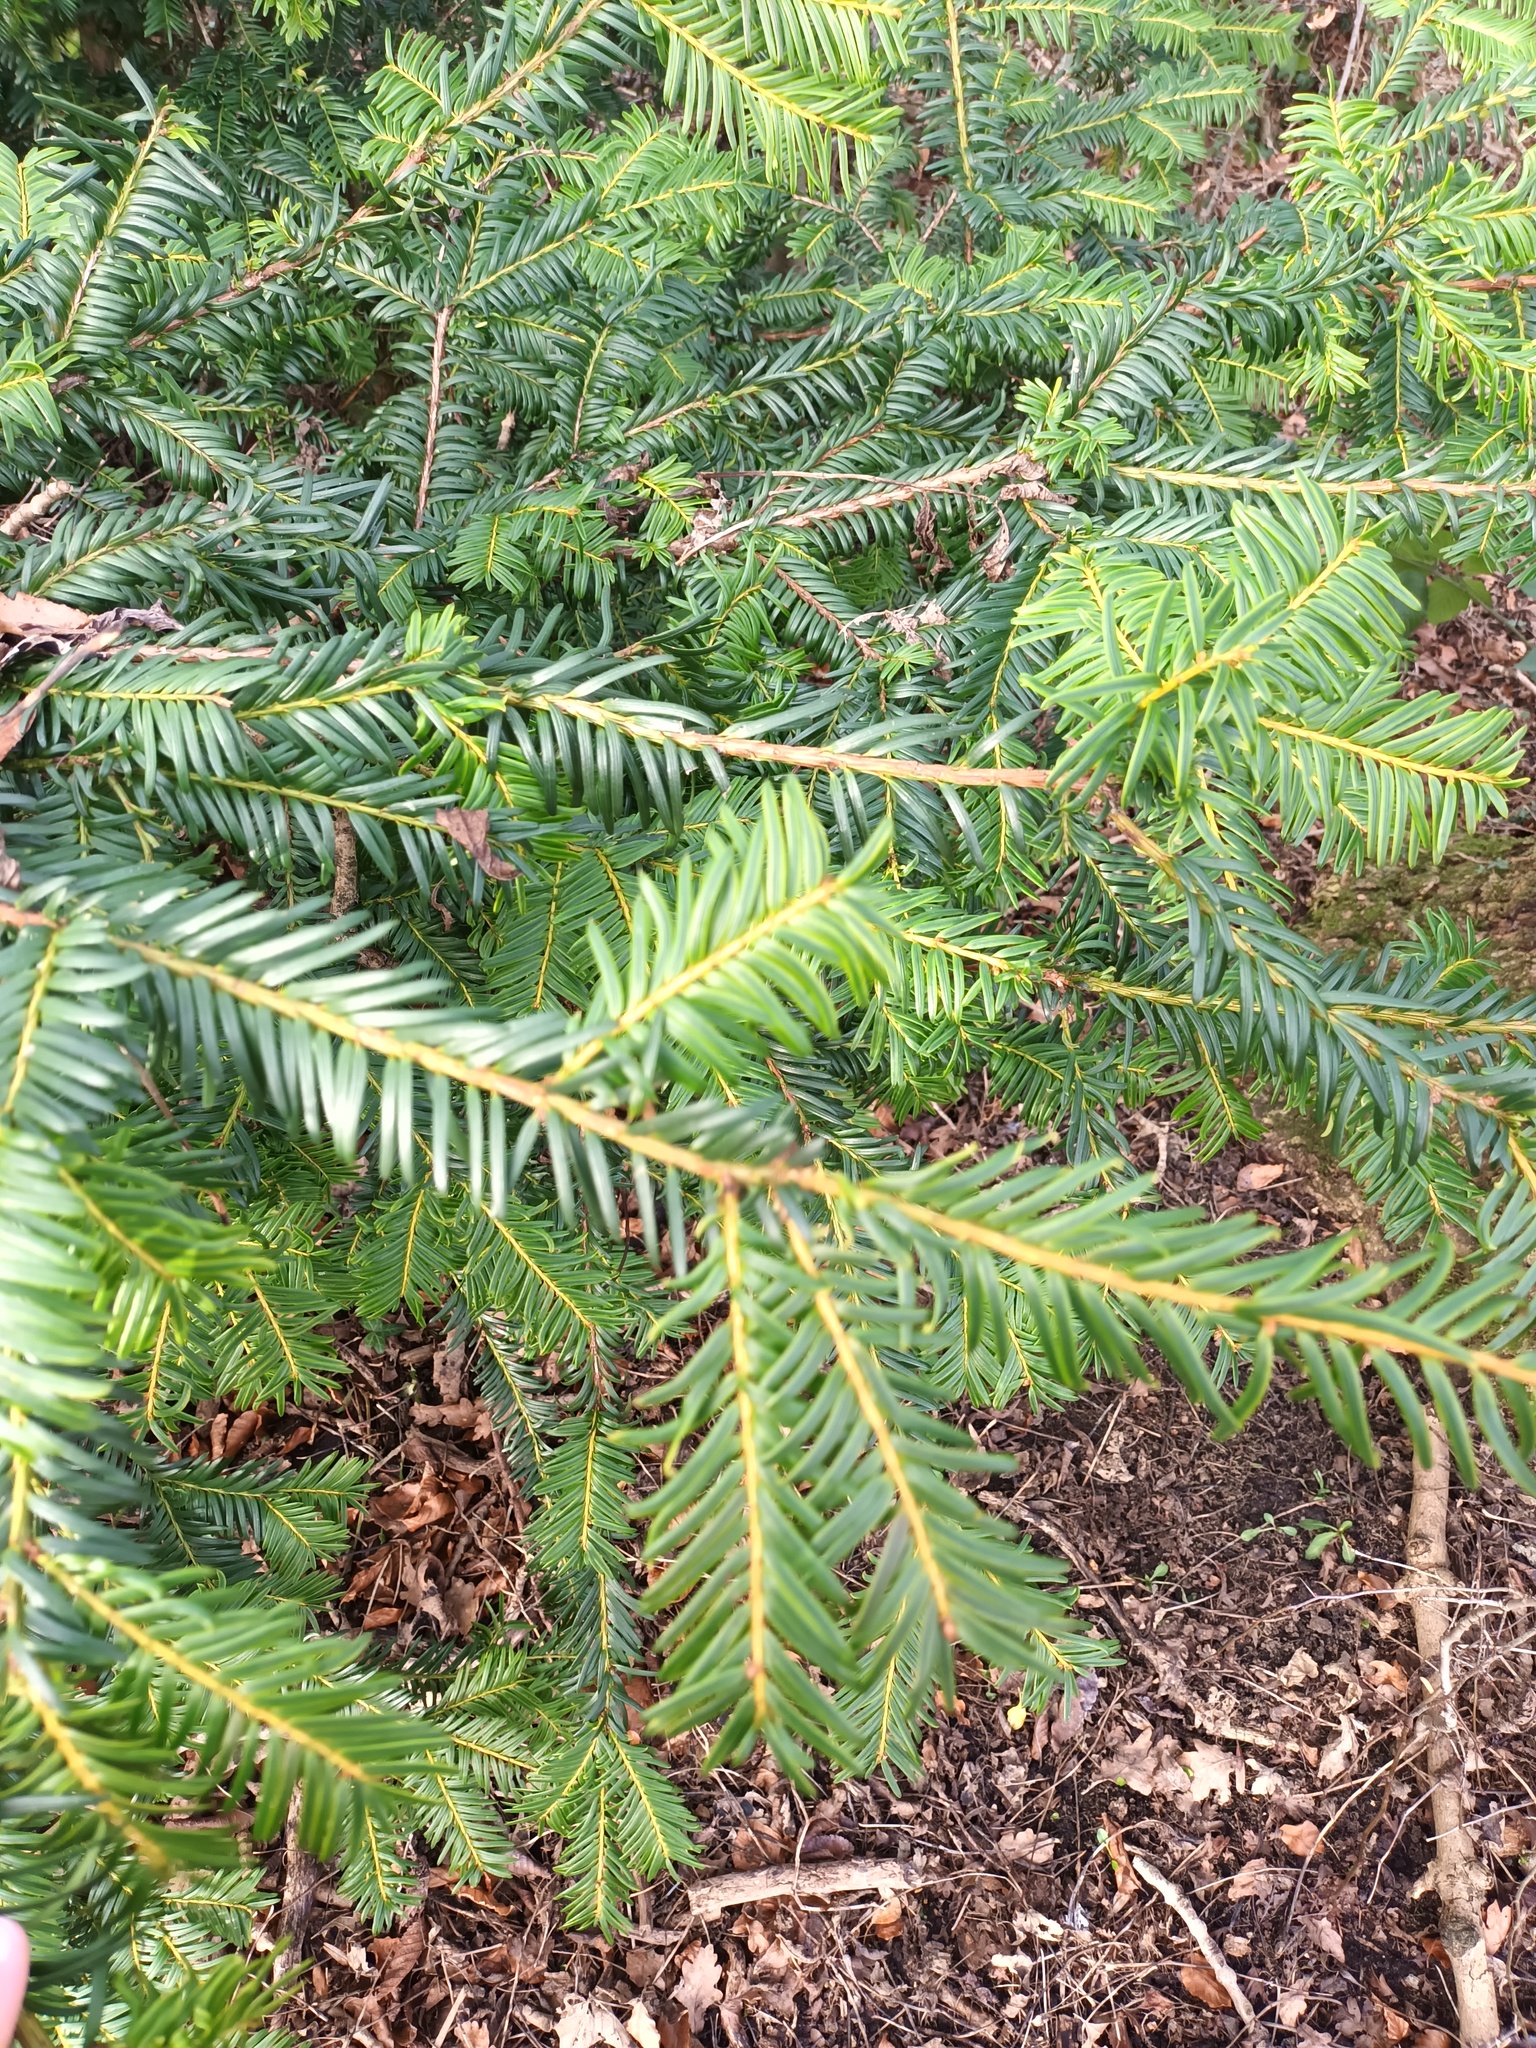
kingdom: Plantae
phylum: Tracheophyta
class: Pinopsida
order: Pinales
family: Taxaceae
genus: Taxus
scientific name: Taxus baccata
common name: Yew
